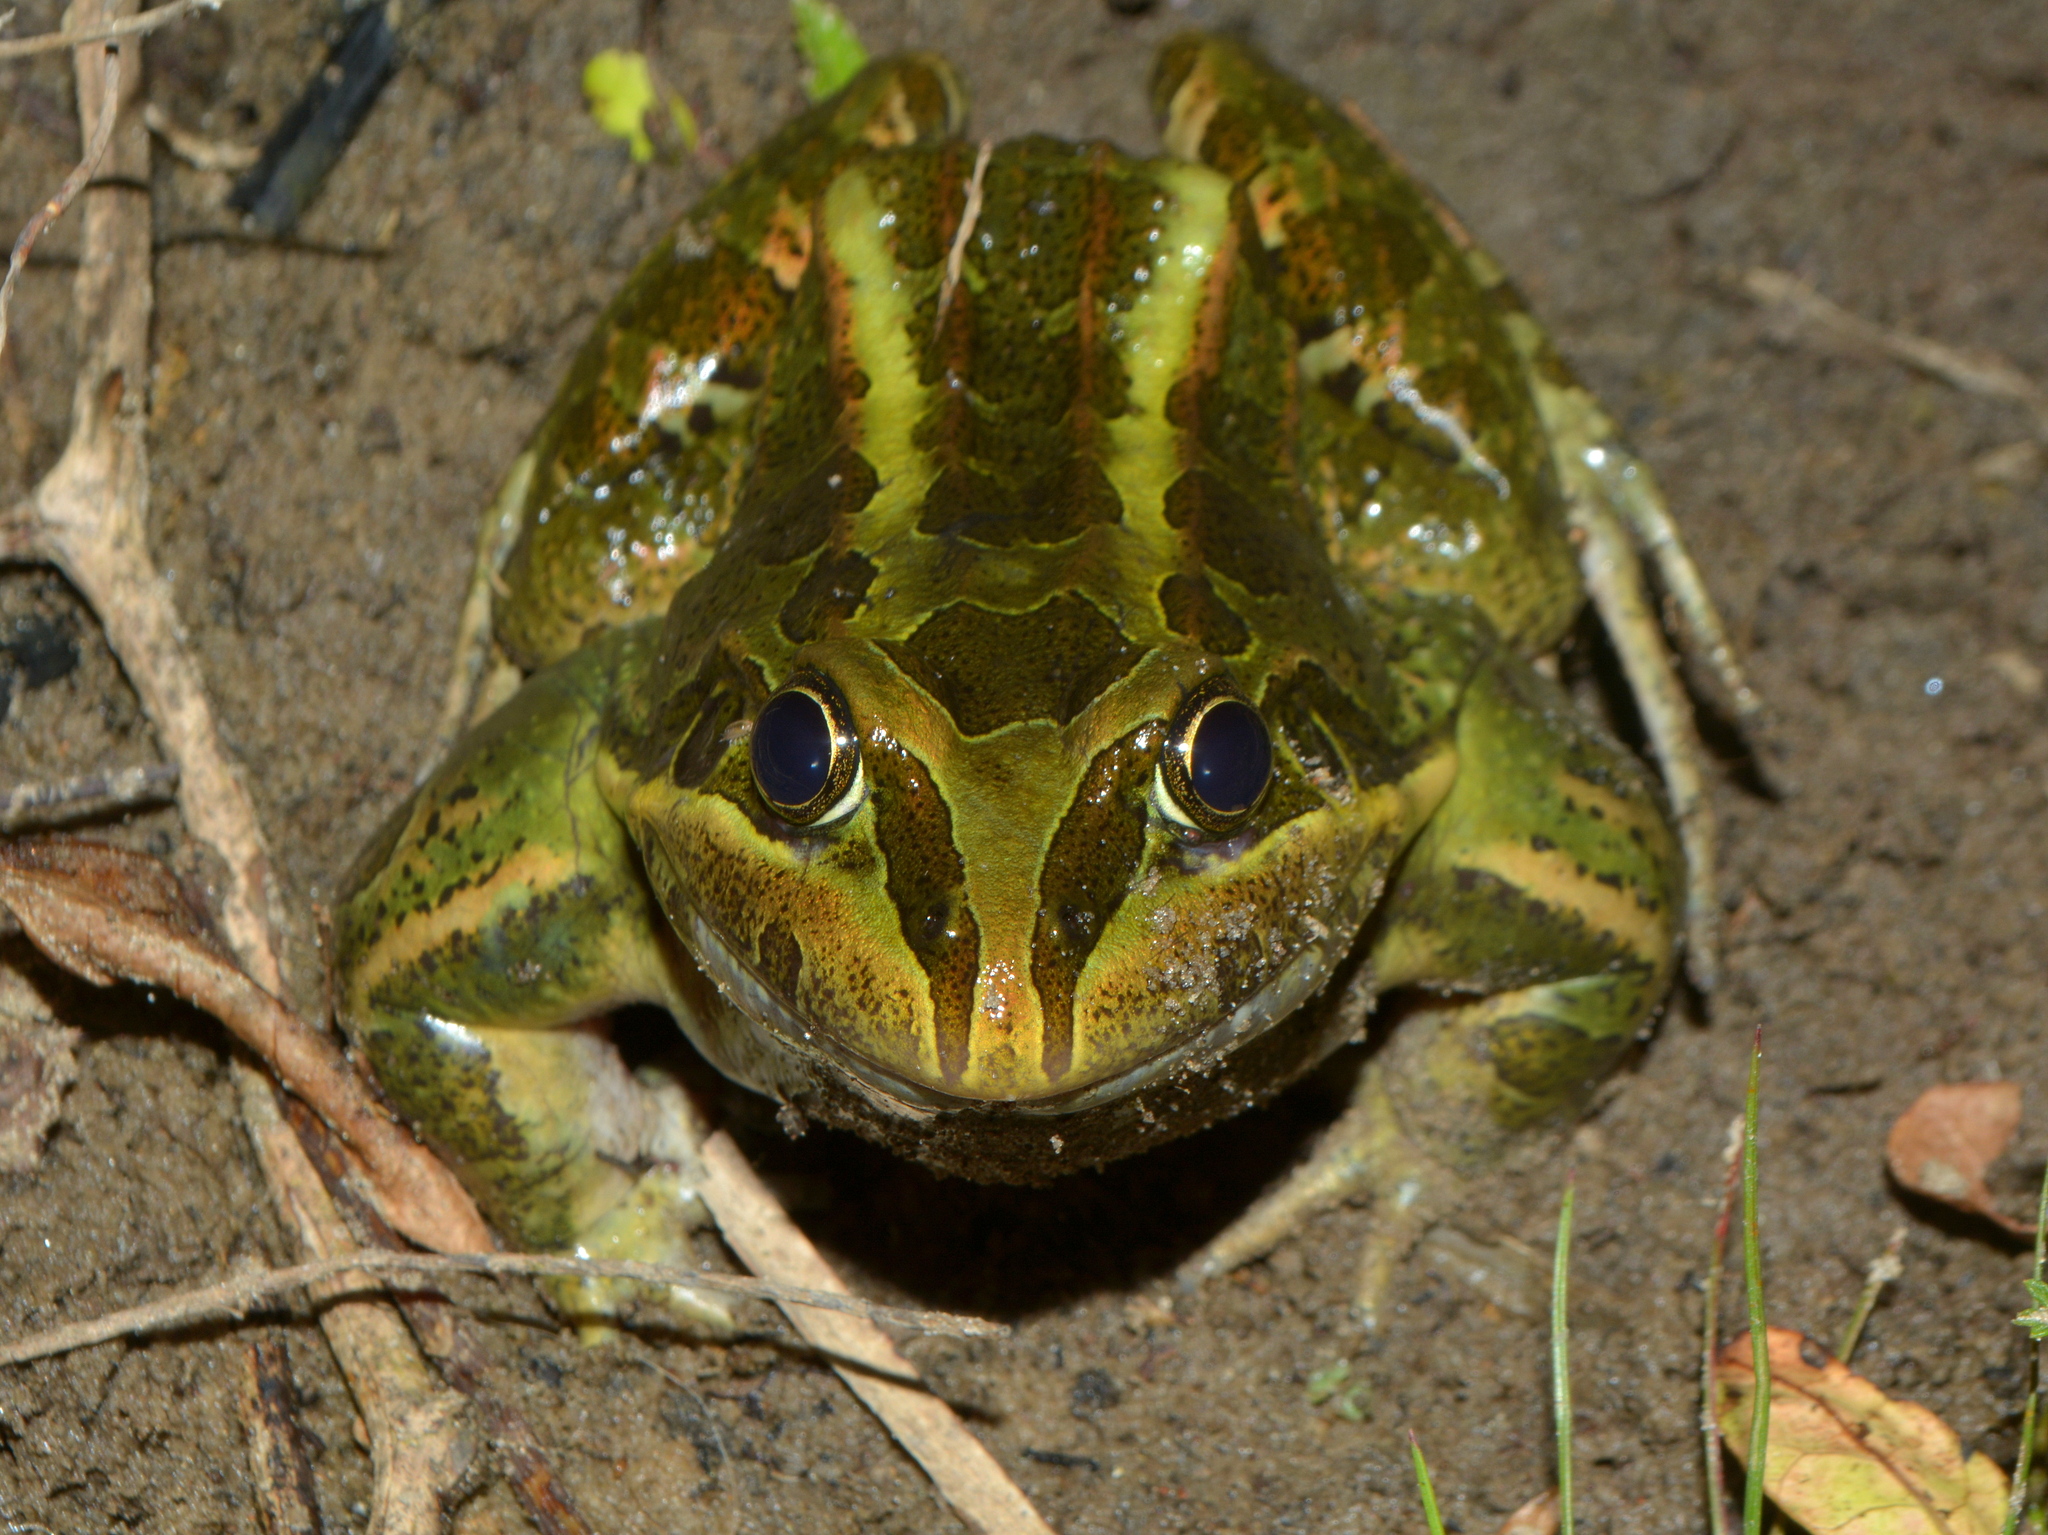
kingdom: Animalia
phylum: Chordata
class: Amphibia
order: Anura
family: Leptodactylidae
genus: Leptodactylus
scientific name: Leptodactylus luctator
